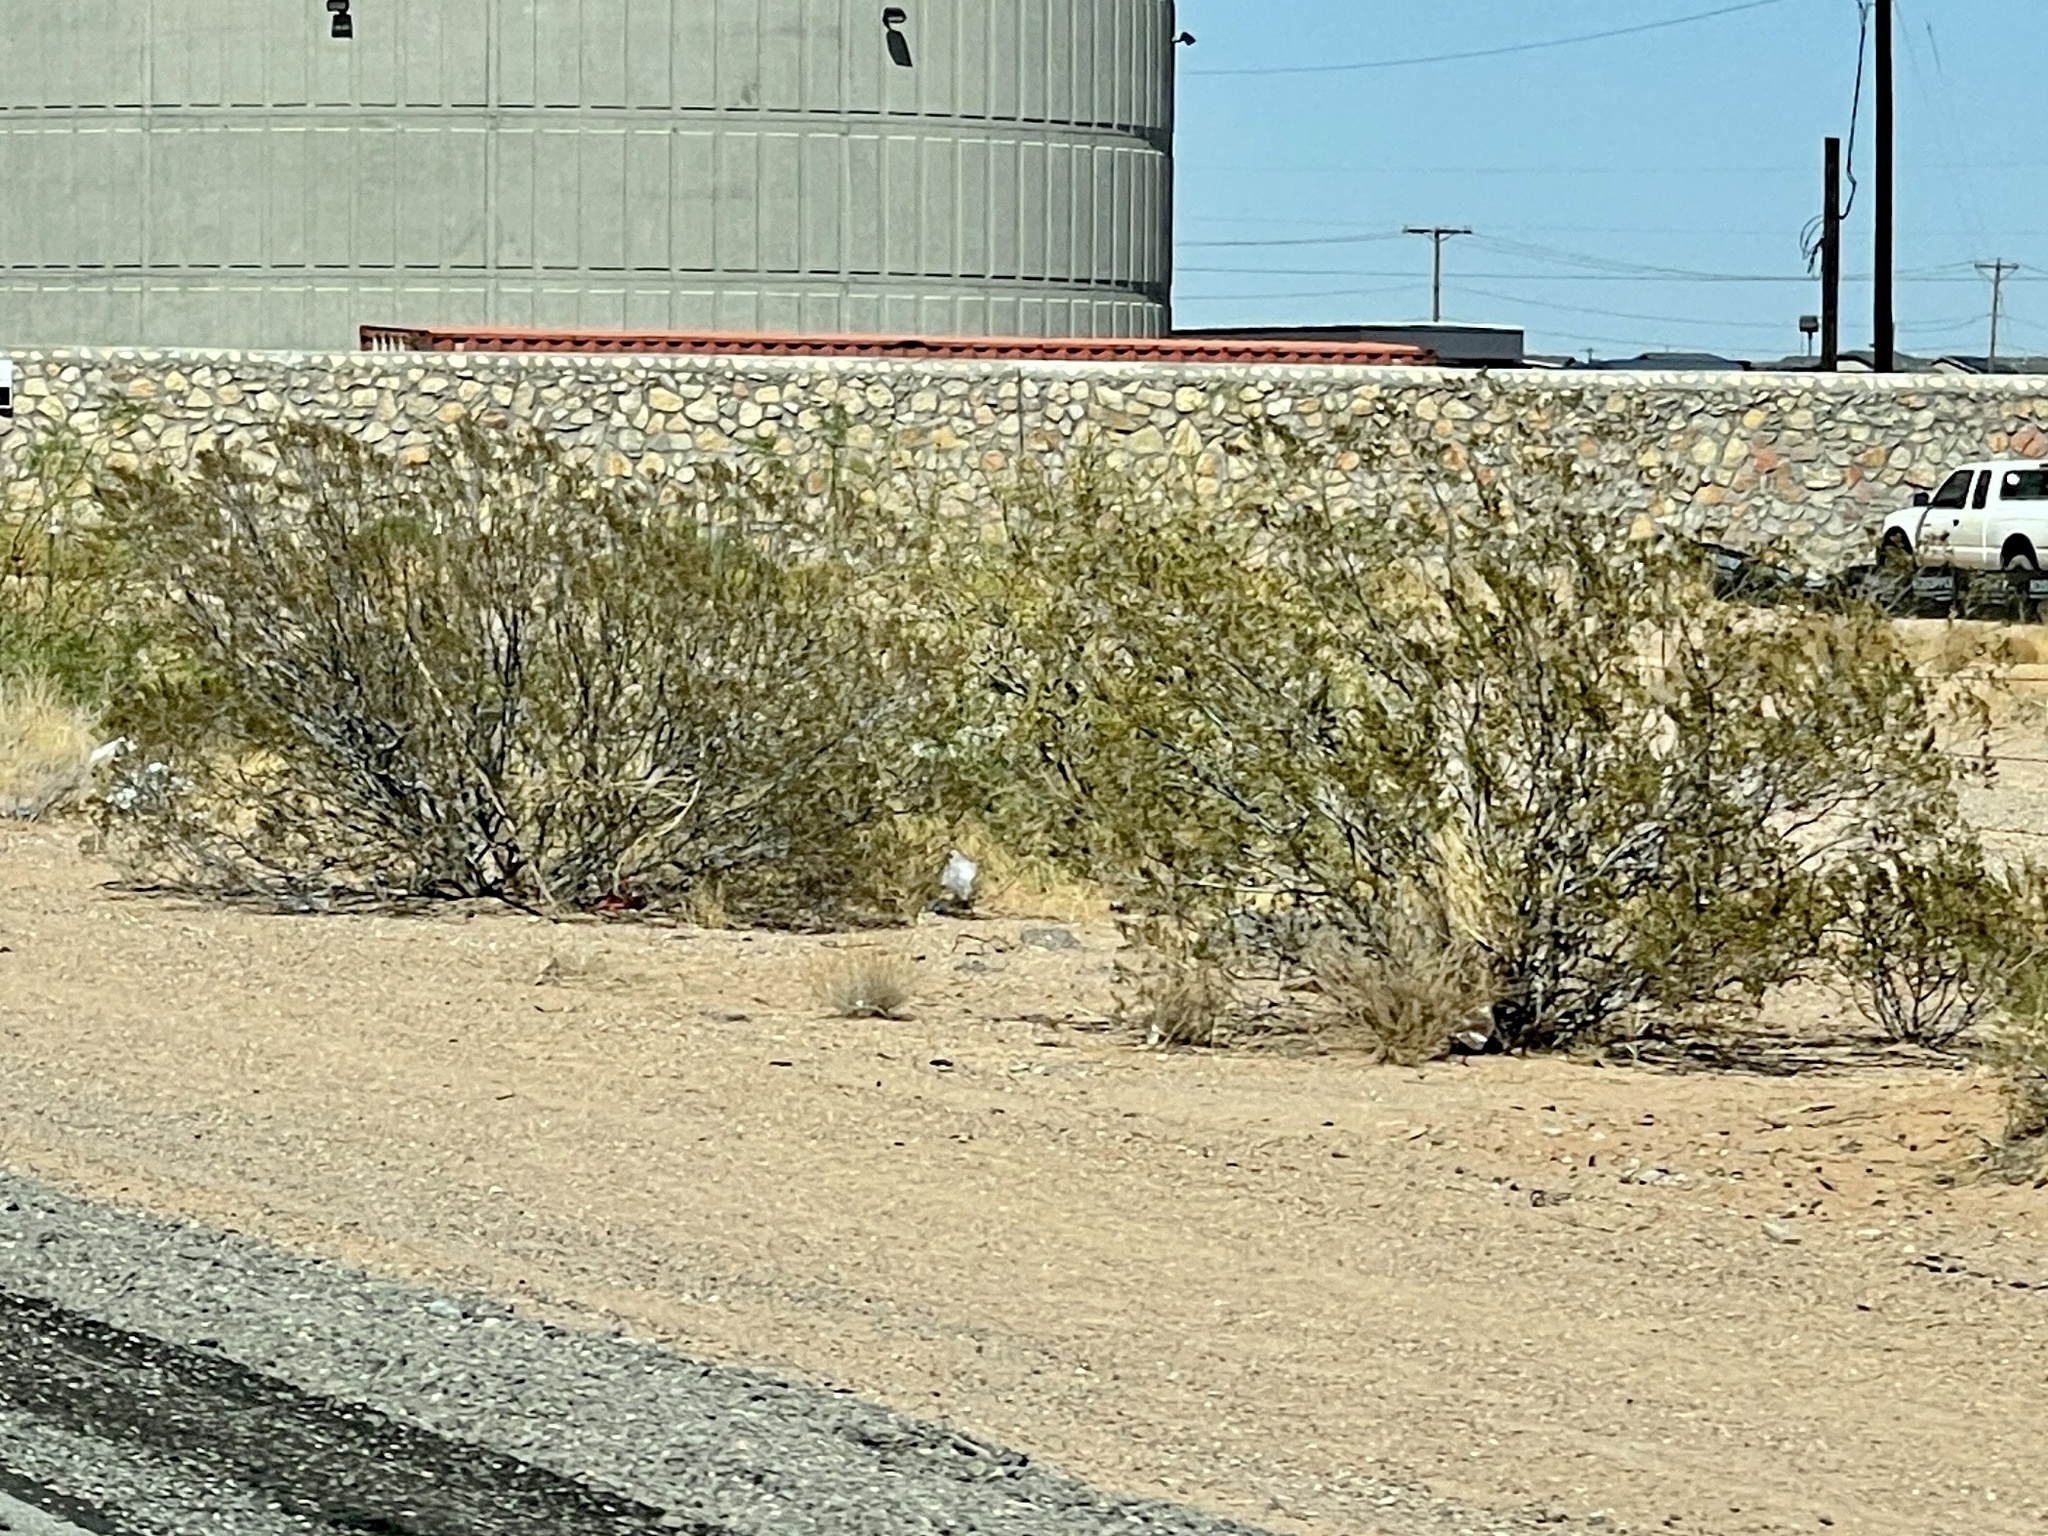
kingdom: Plantae
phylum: Tracheophyta
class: Magnoliopsida
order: Zygophyllales
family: Zygophyllaceae
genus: Larrea
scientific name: Larrea tridentata
